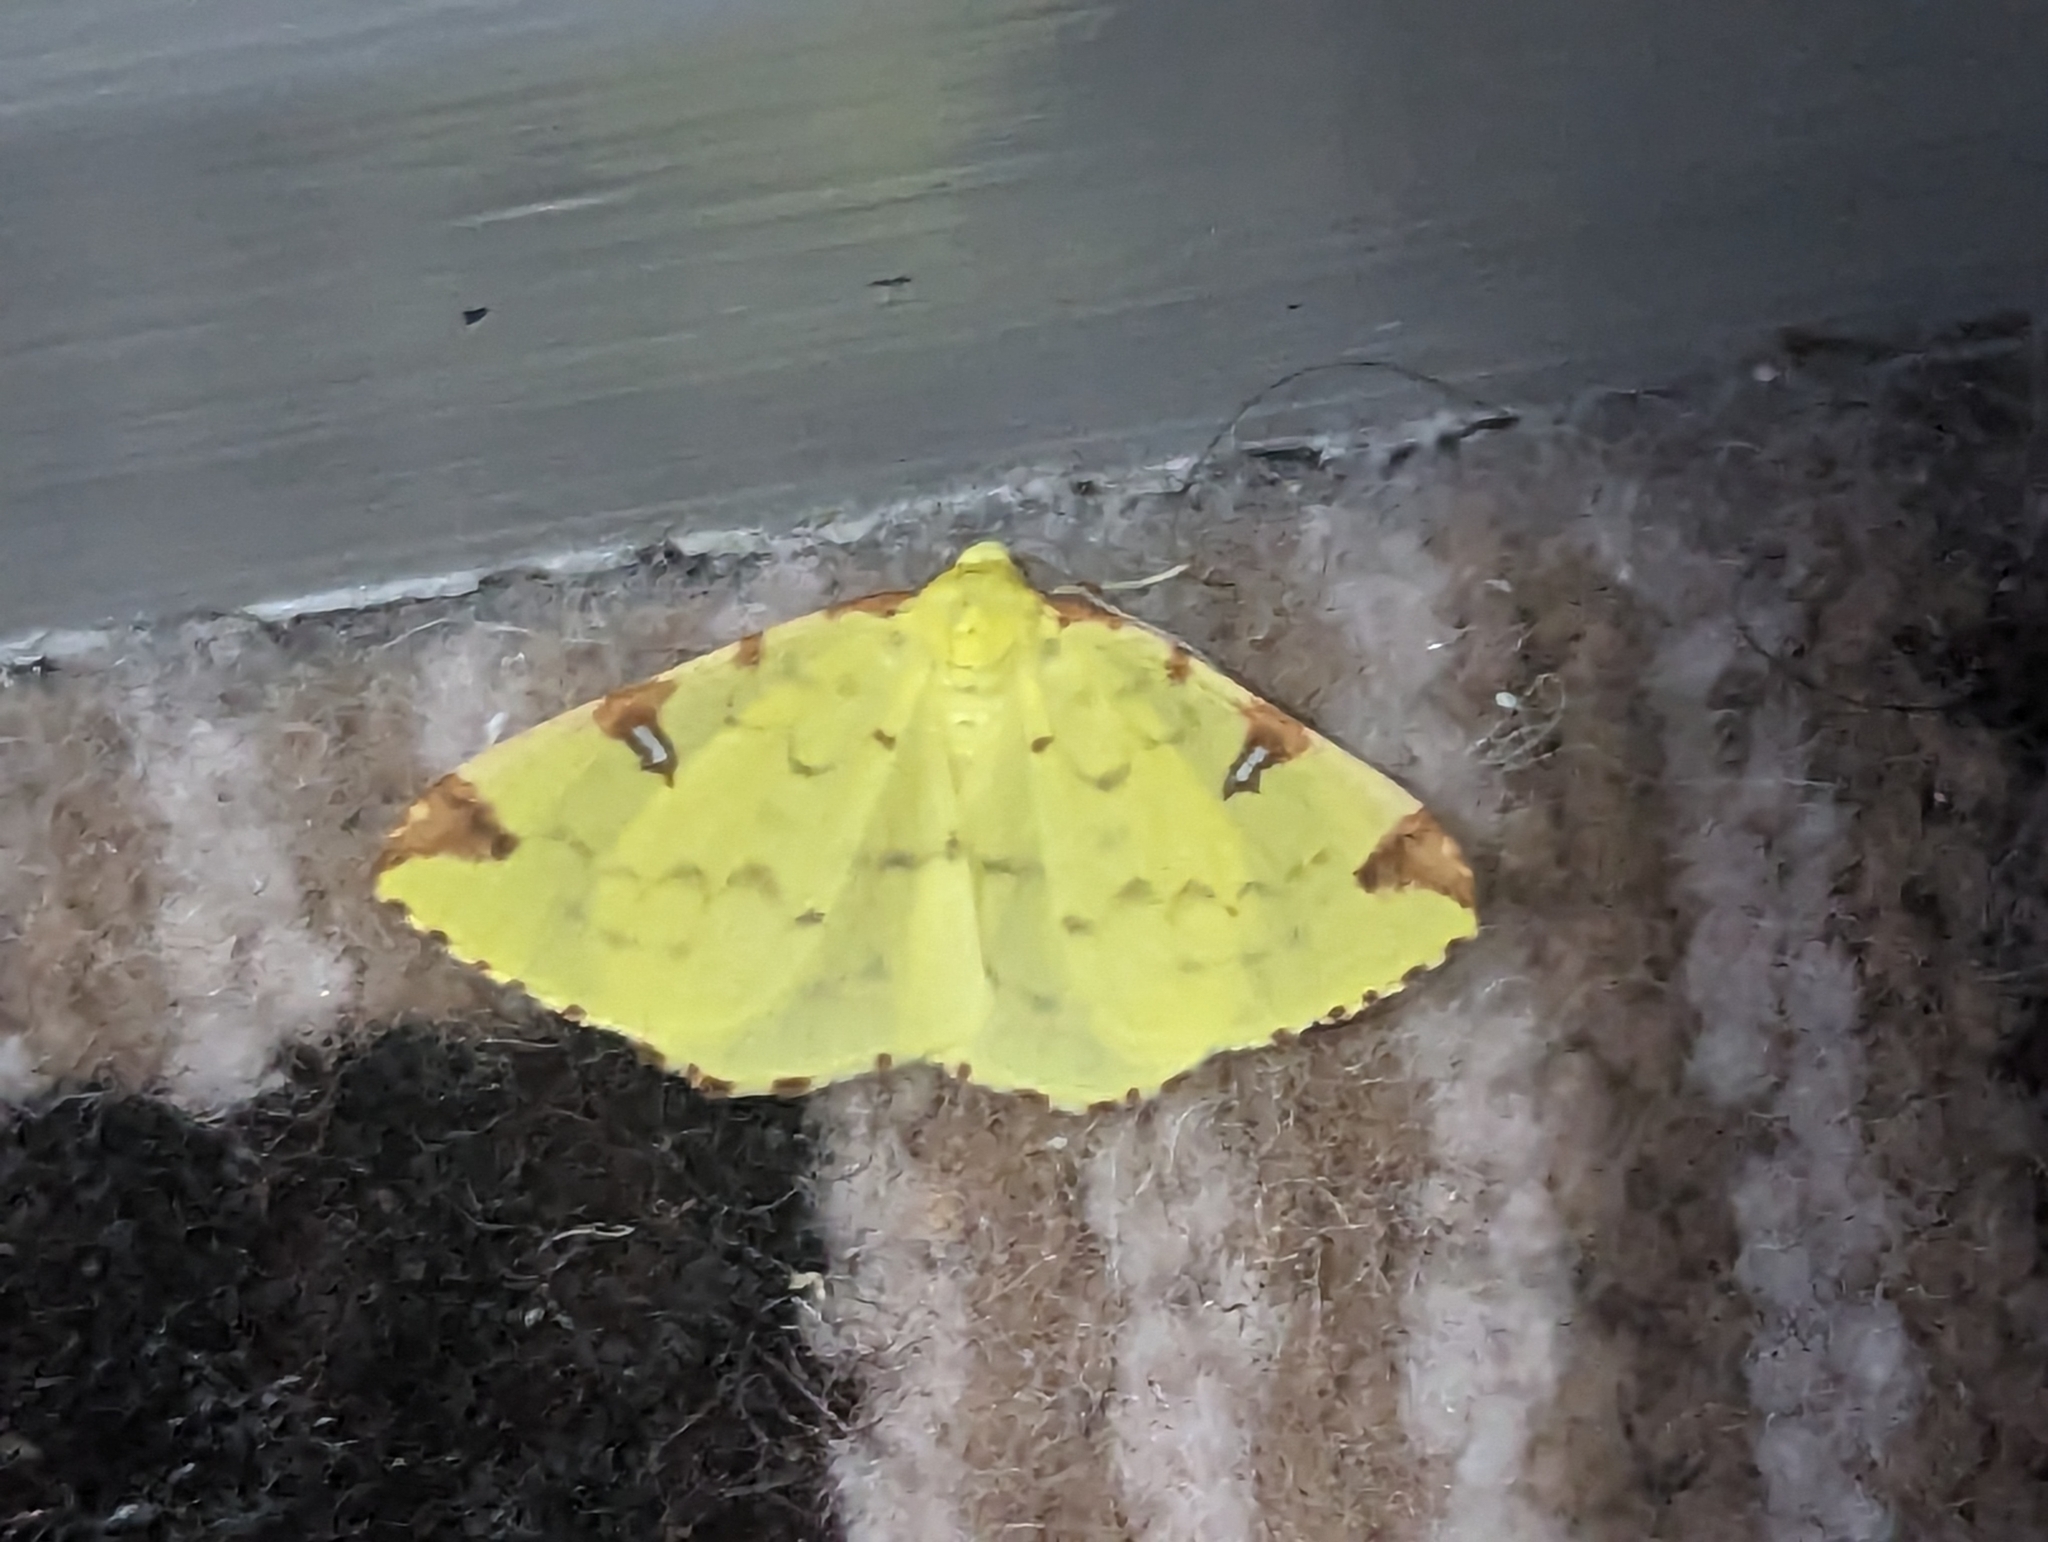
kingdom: Animalia
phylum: Arthropoda
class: Insecta
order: Lepidoptera
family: Geometridae
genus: Opisthograptis
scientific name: Opisthograptis luteolata
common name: Brimstone moth
